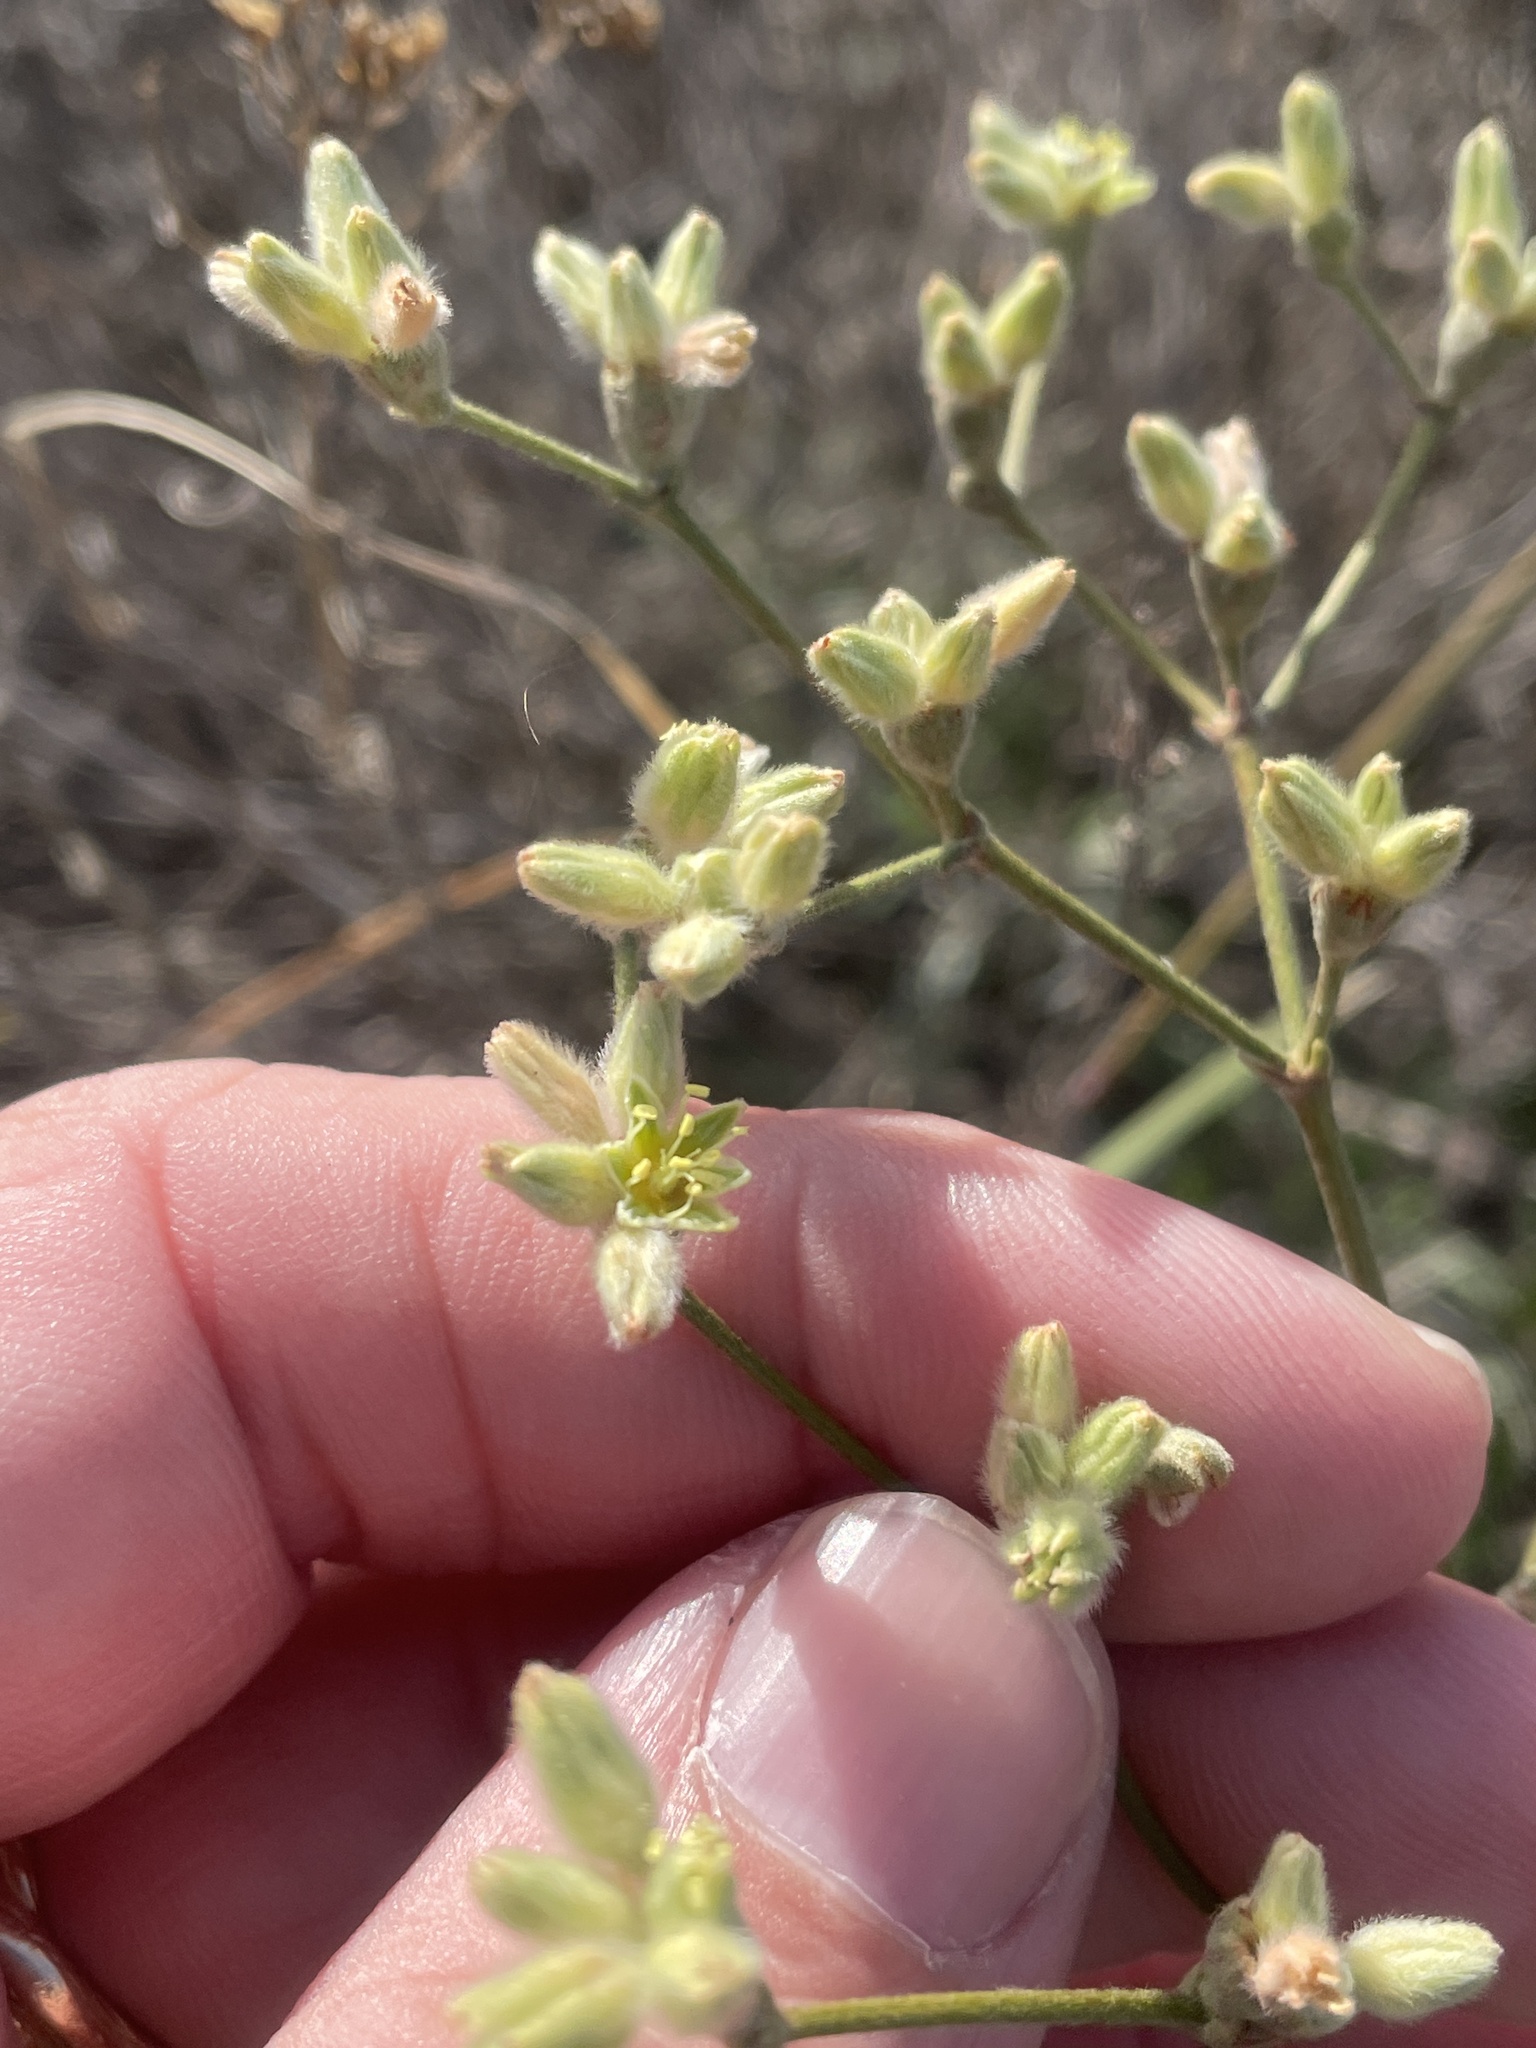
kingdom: Plantae
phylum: Tracheophyta
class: Magnoliopsida
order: Caryophyllales
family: Polygonaceae
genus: Eriogonum
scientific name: Eriogonum longifolium
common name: Longleaf wild buckwheat
